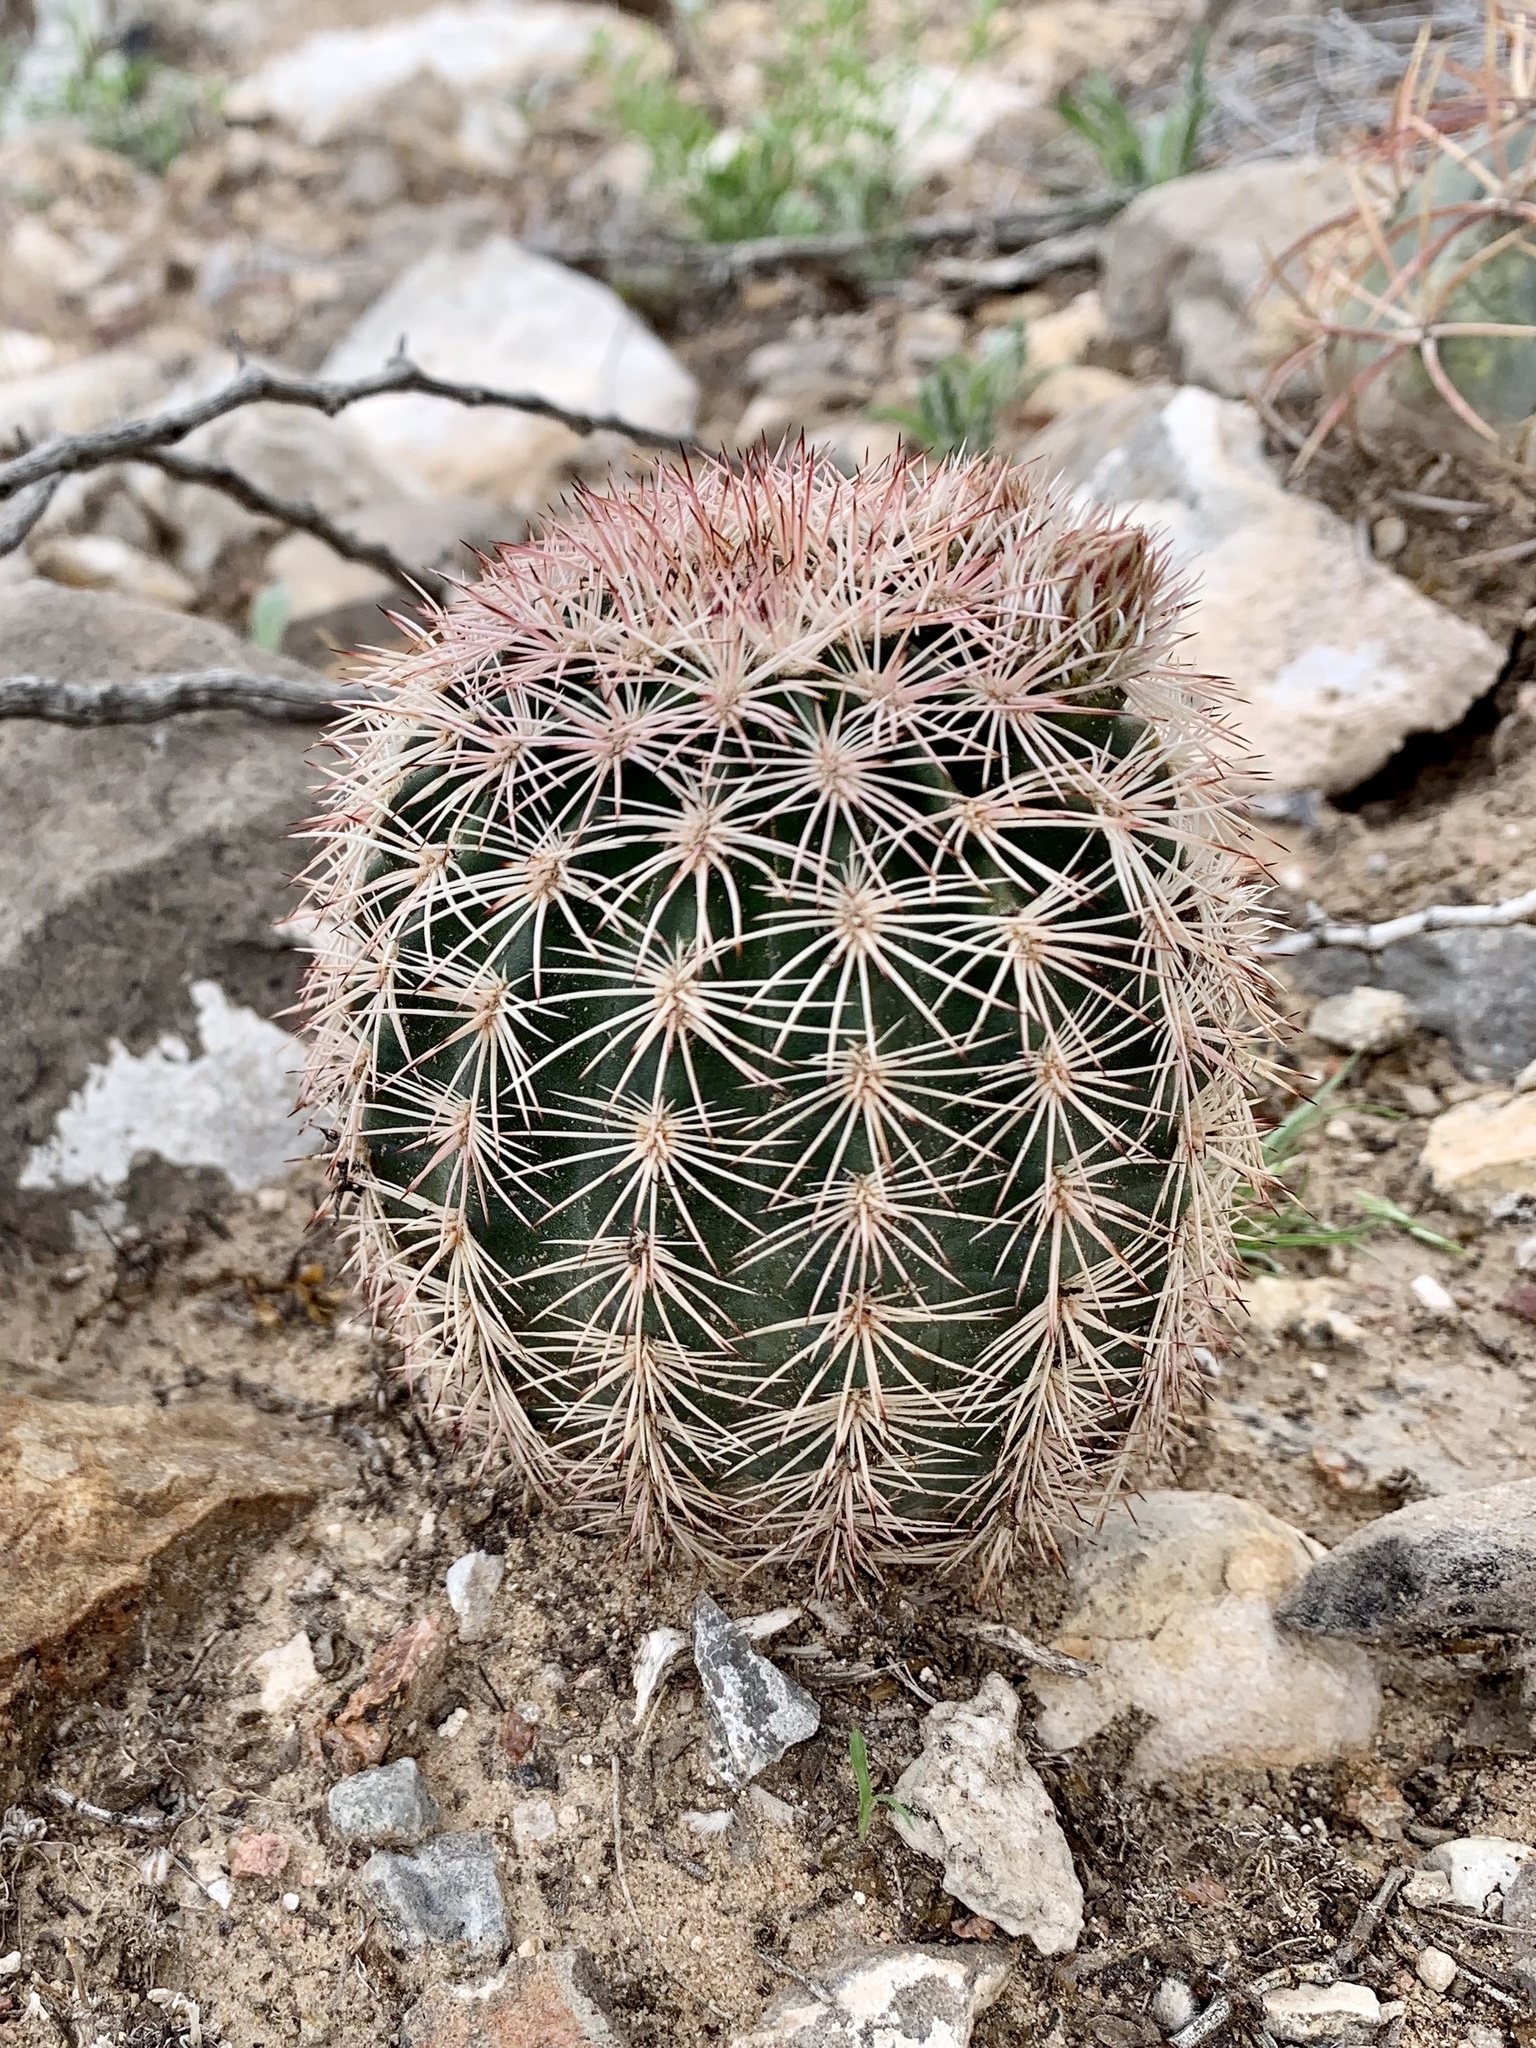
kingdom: Plantae
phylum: Tracheophyta
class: Magnoliopsida
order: Caryophyllales
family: Cactaceae
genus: Echinocereus
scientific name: Echinocereus dasyacanthus
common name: Spiny hedgehog cactus
